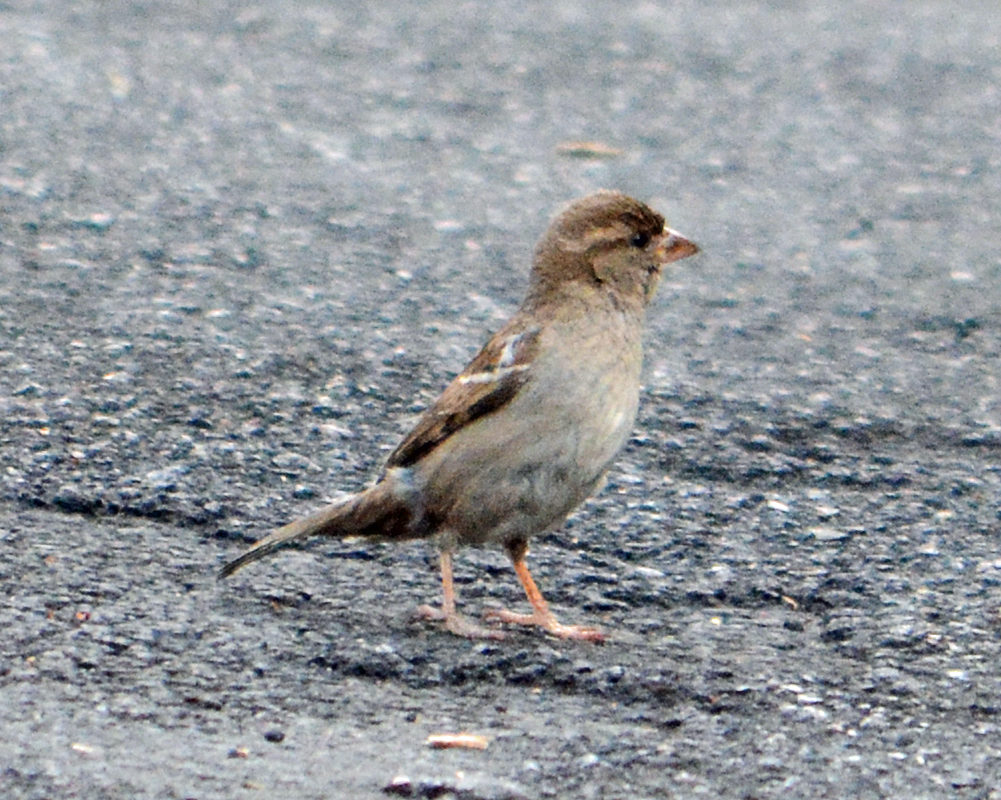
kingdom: Animalia
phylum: Chordata
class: Aves
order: Passeriformes
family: Passeridae
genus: Passer
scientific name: Passer domesticus
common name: House sparrow
